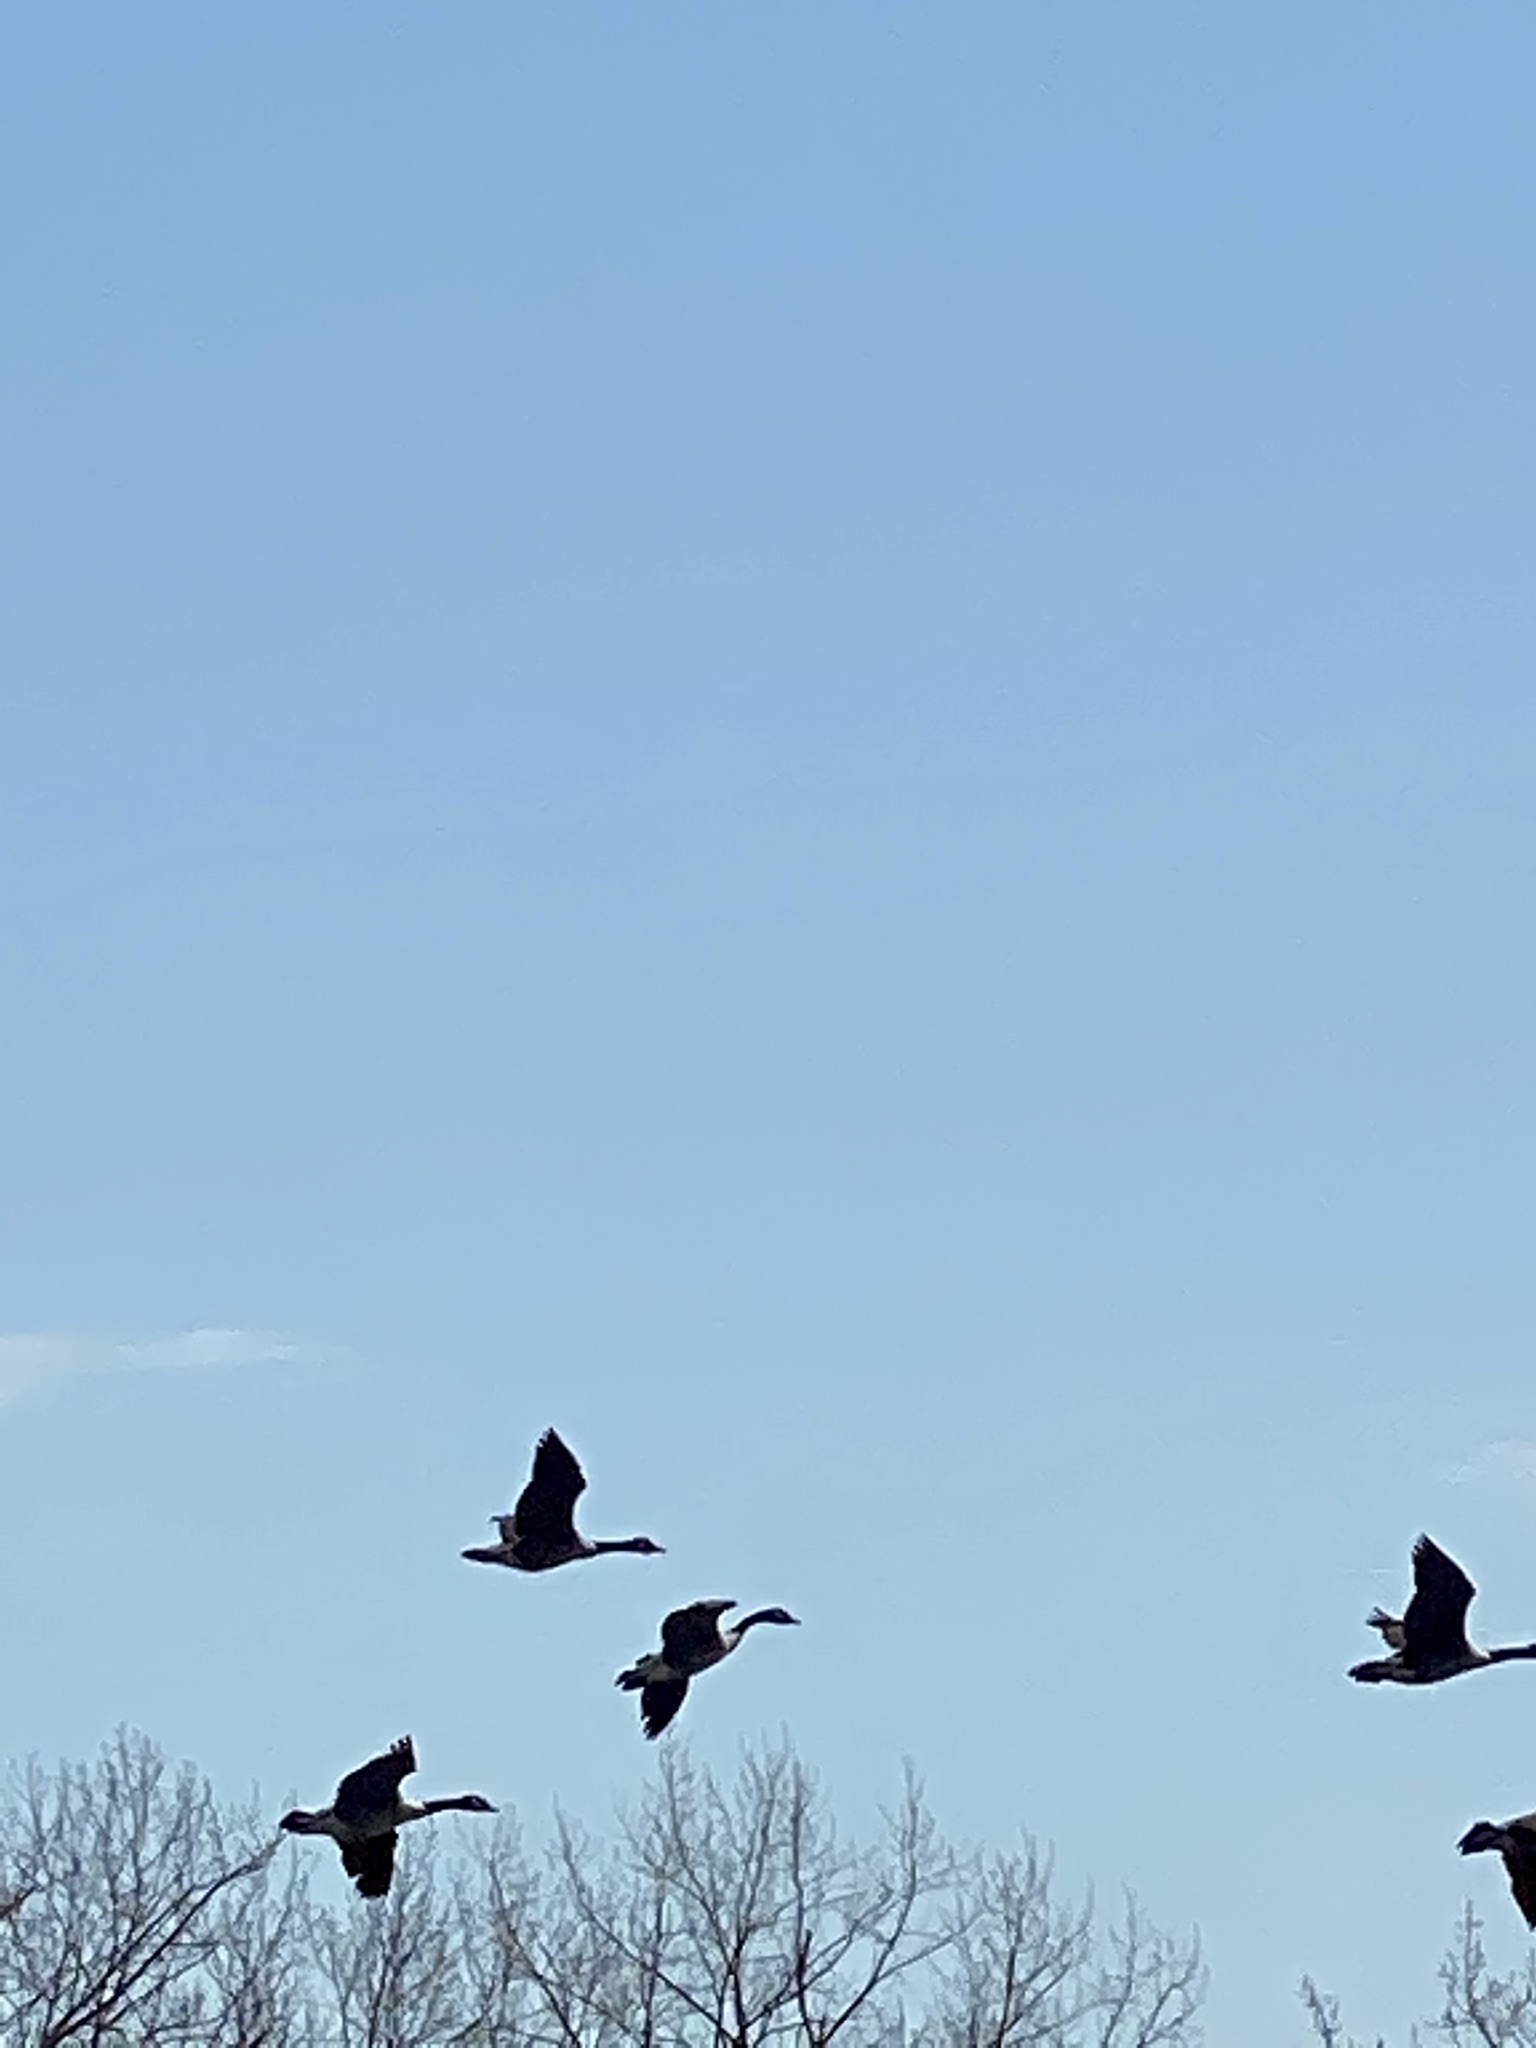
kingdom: Animalia
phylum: Chordata
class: Aves
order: Anseriformes
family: Anatidae
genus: Branta
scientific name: Branta canadensis
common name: Canada goose
